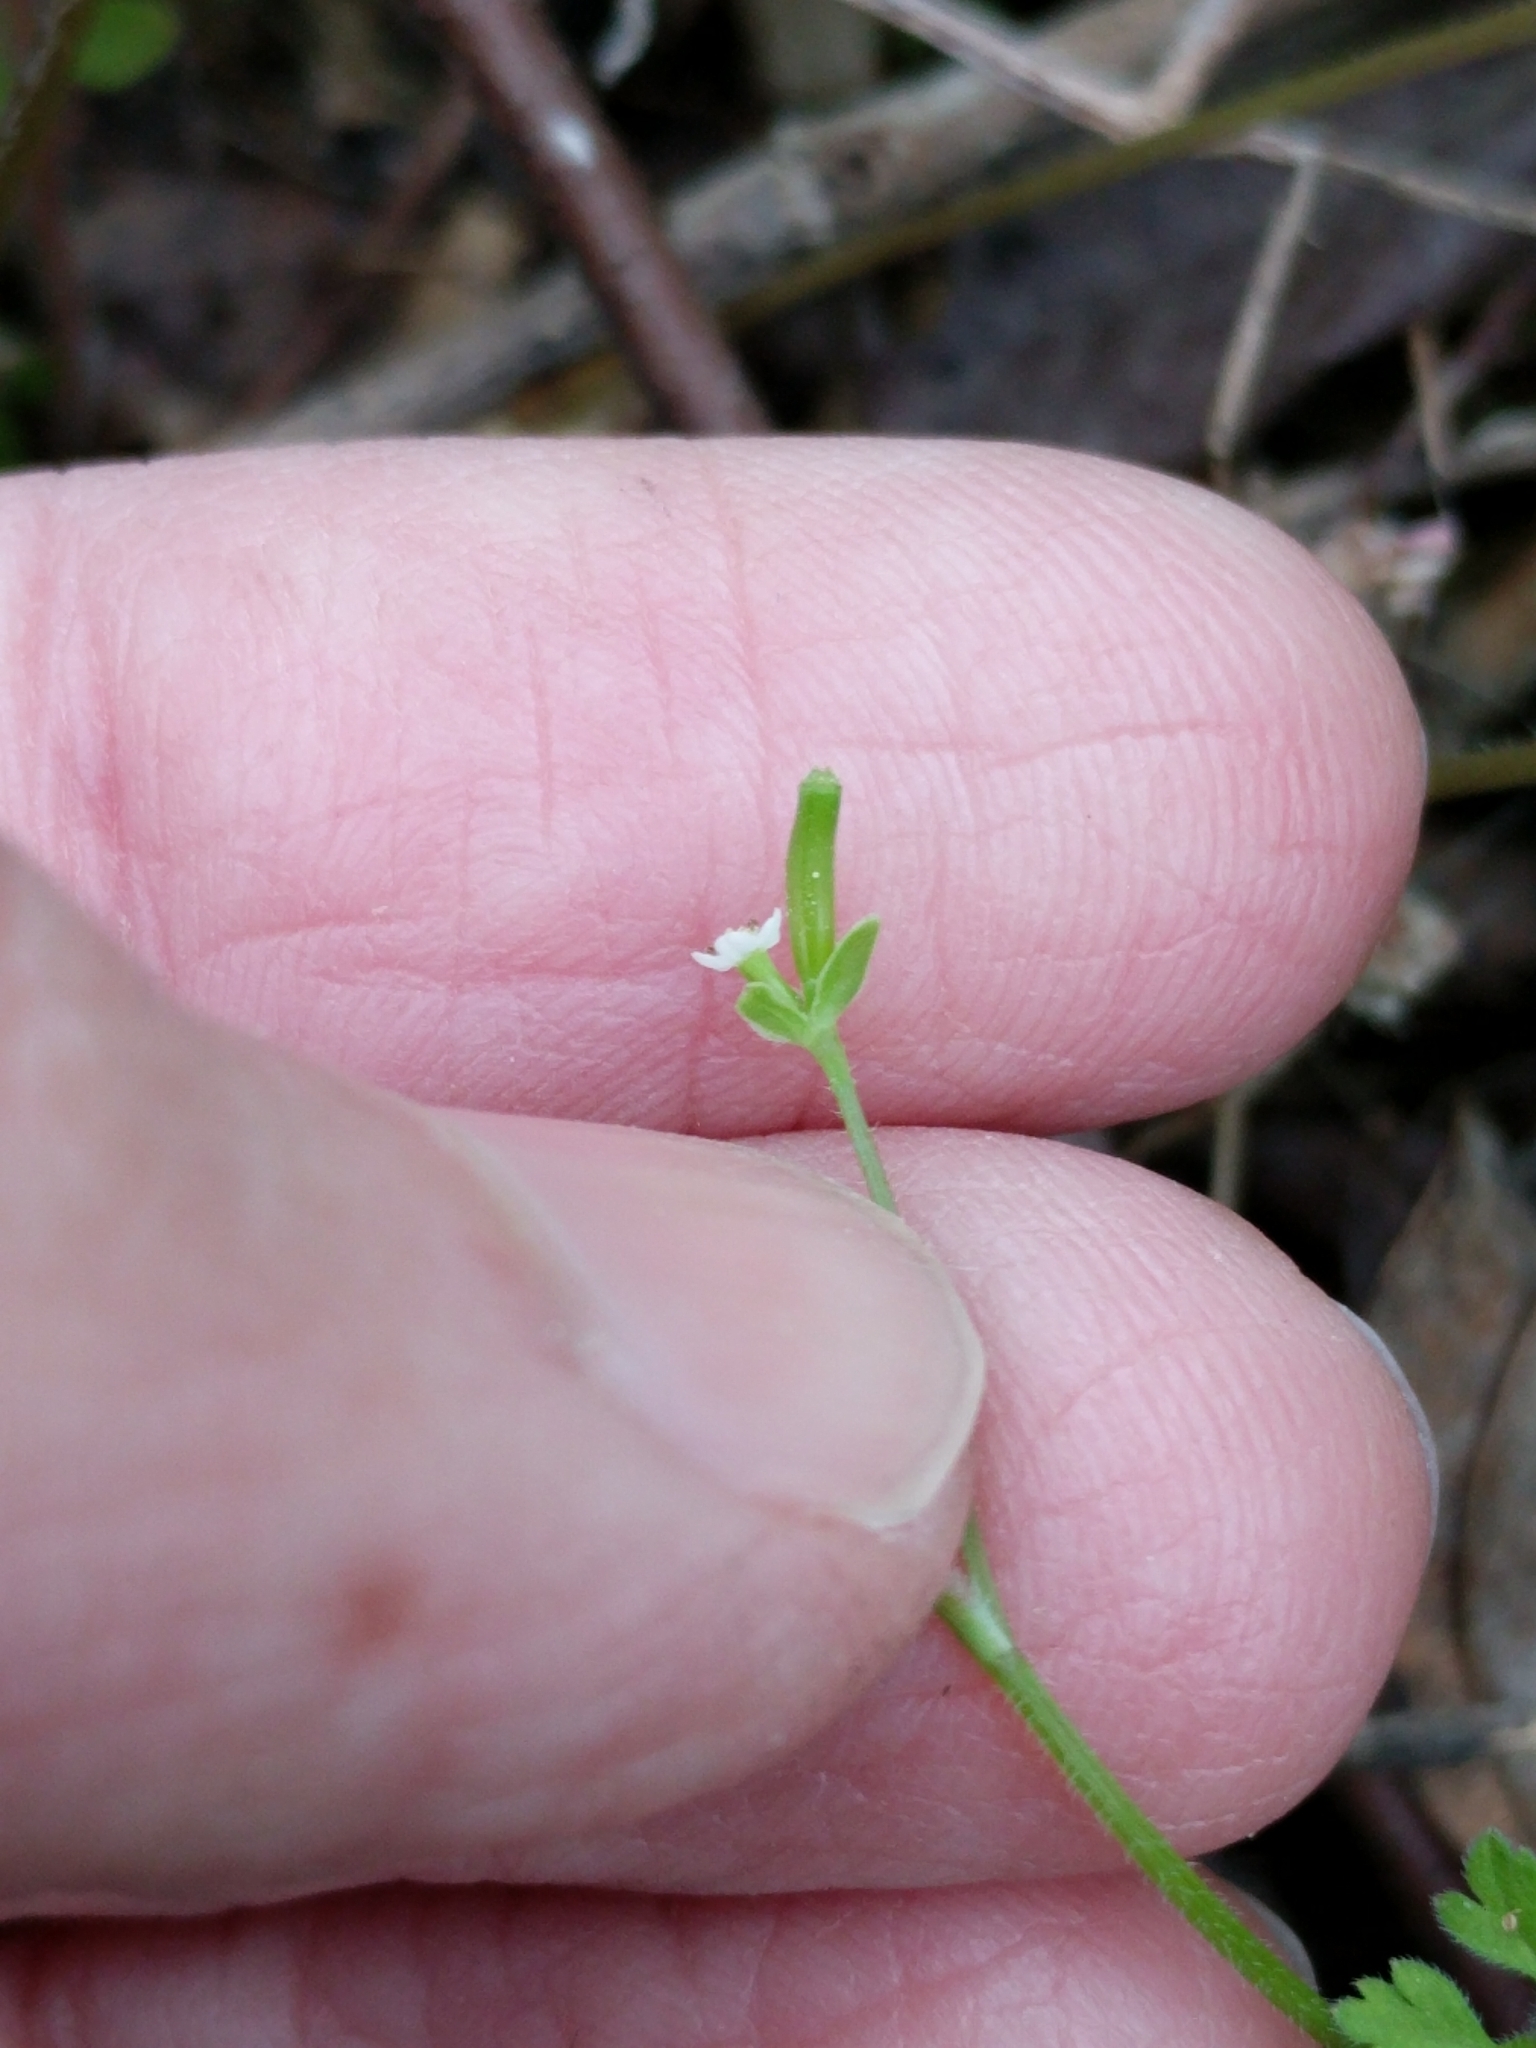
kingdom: Plantae
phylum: Tracheophyta
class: Magnoliopsida
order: Apiales
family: Apiaceae
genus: Chaerophyllum
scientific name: Chaerophyllum tainturieri
